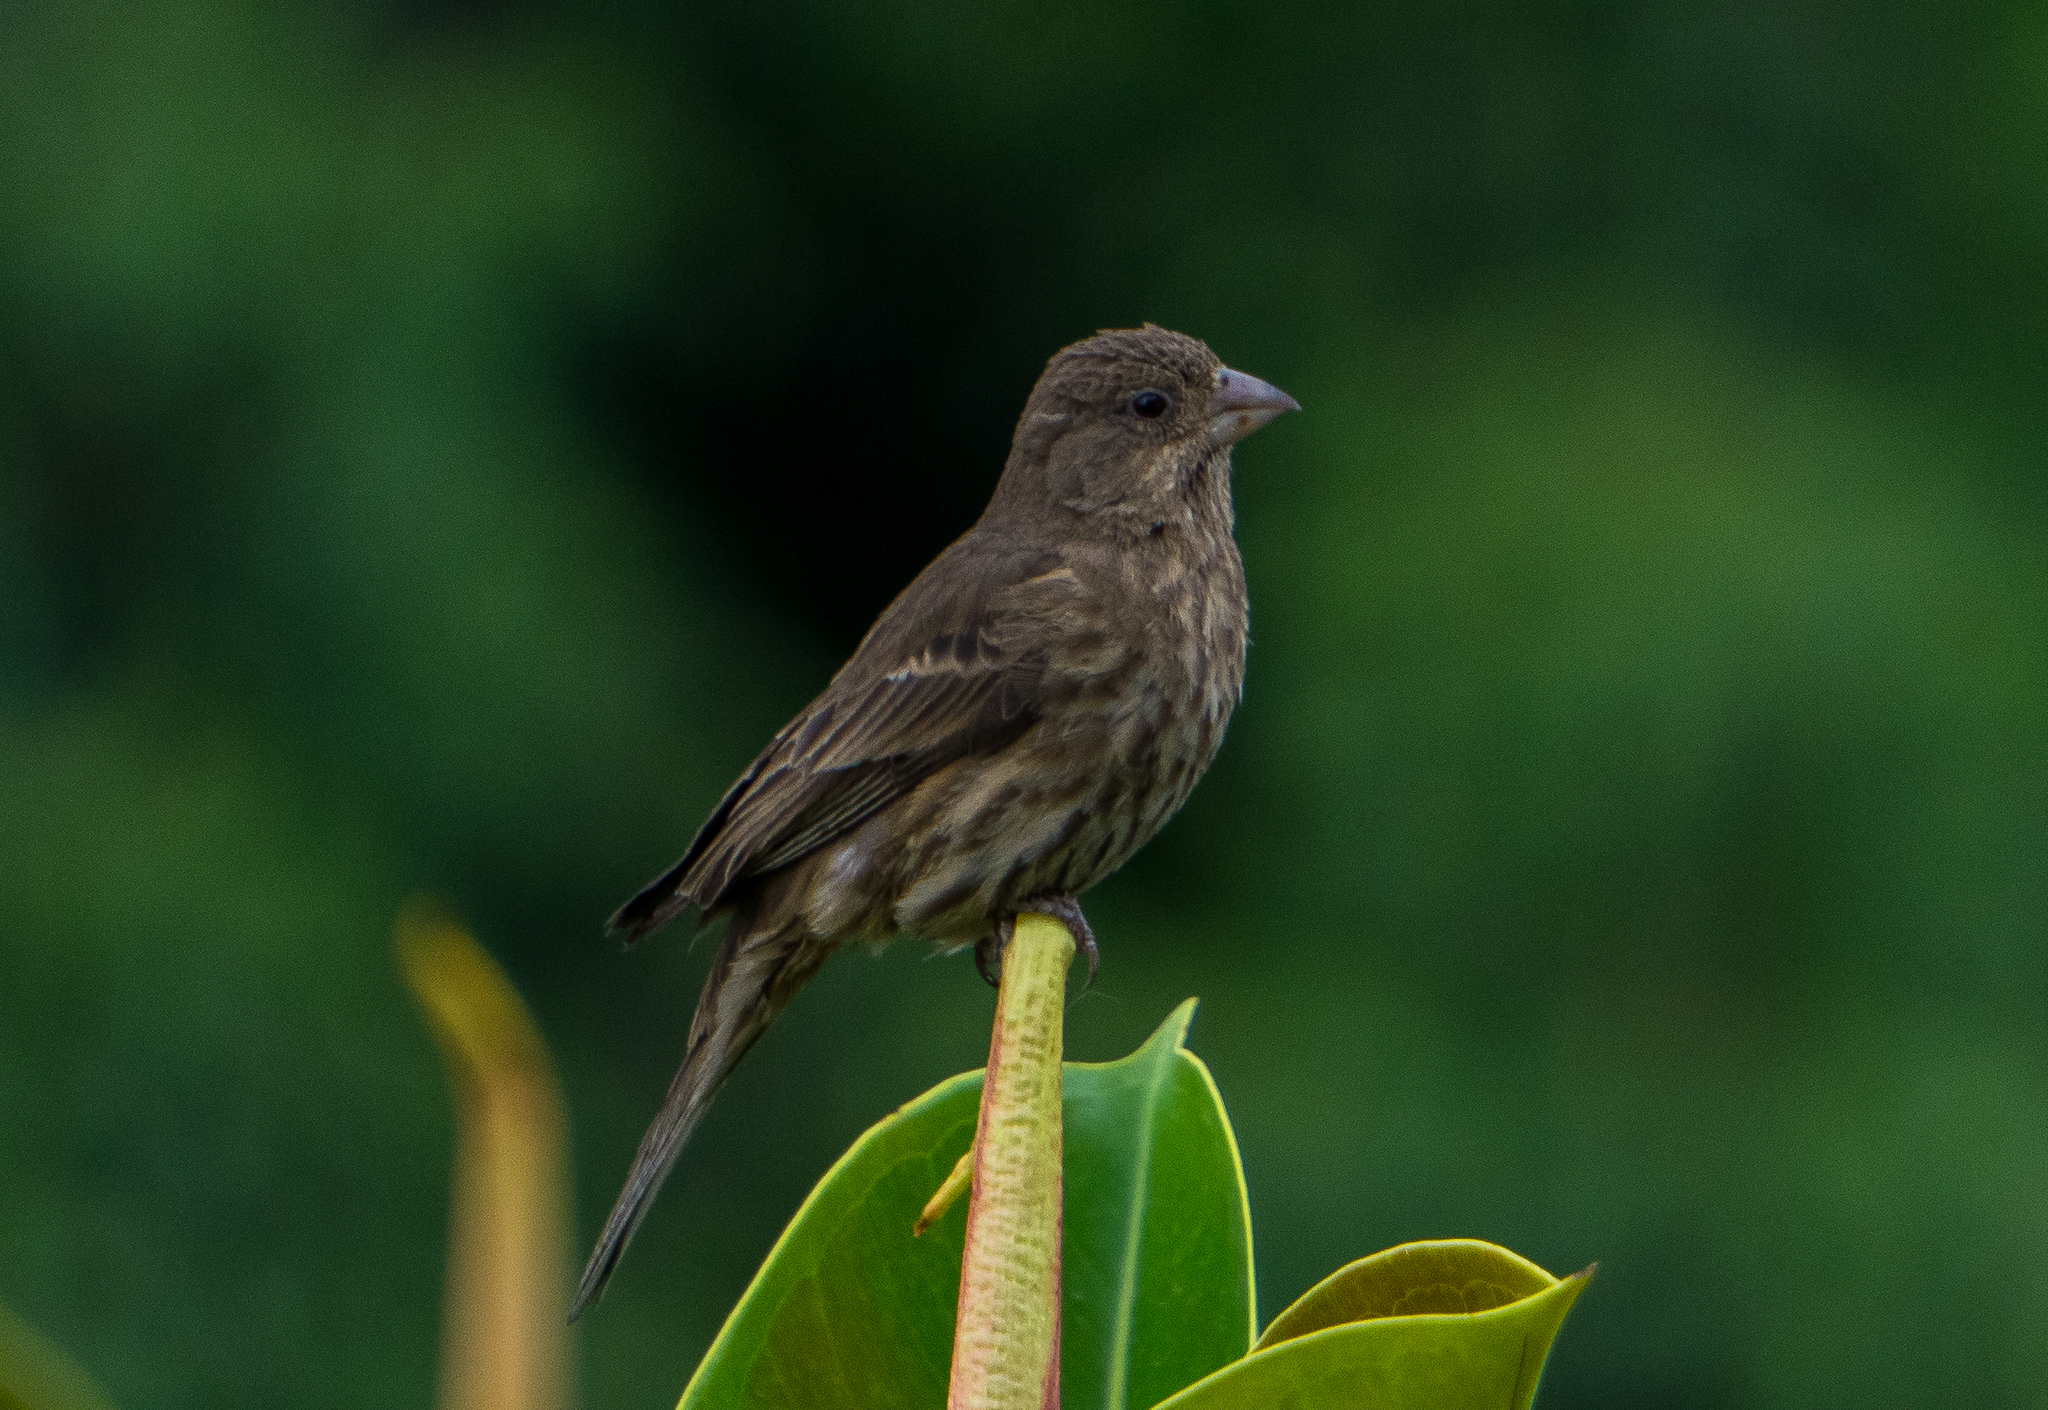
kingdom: Animalia
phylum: Chordata
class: Aves
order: Passeriformes
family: Fringillidae
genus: Haemorhous
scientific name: Haemorhous mexicanus
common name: House finch
